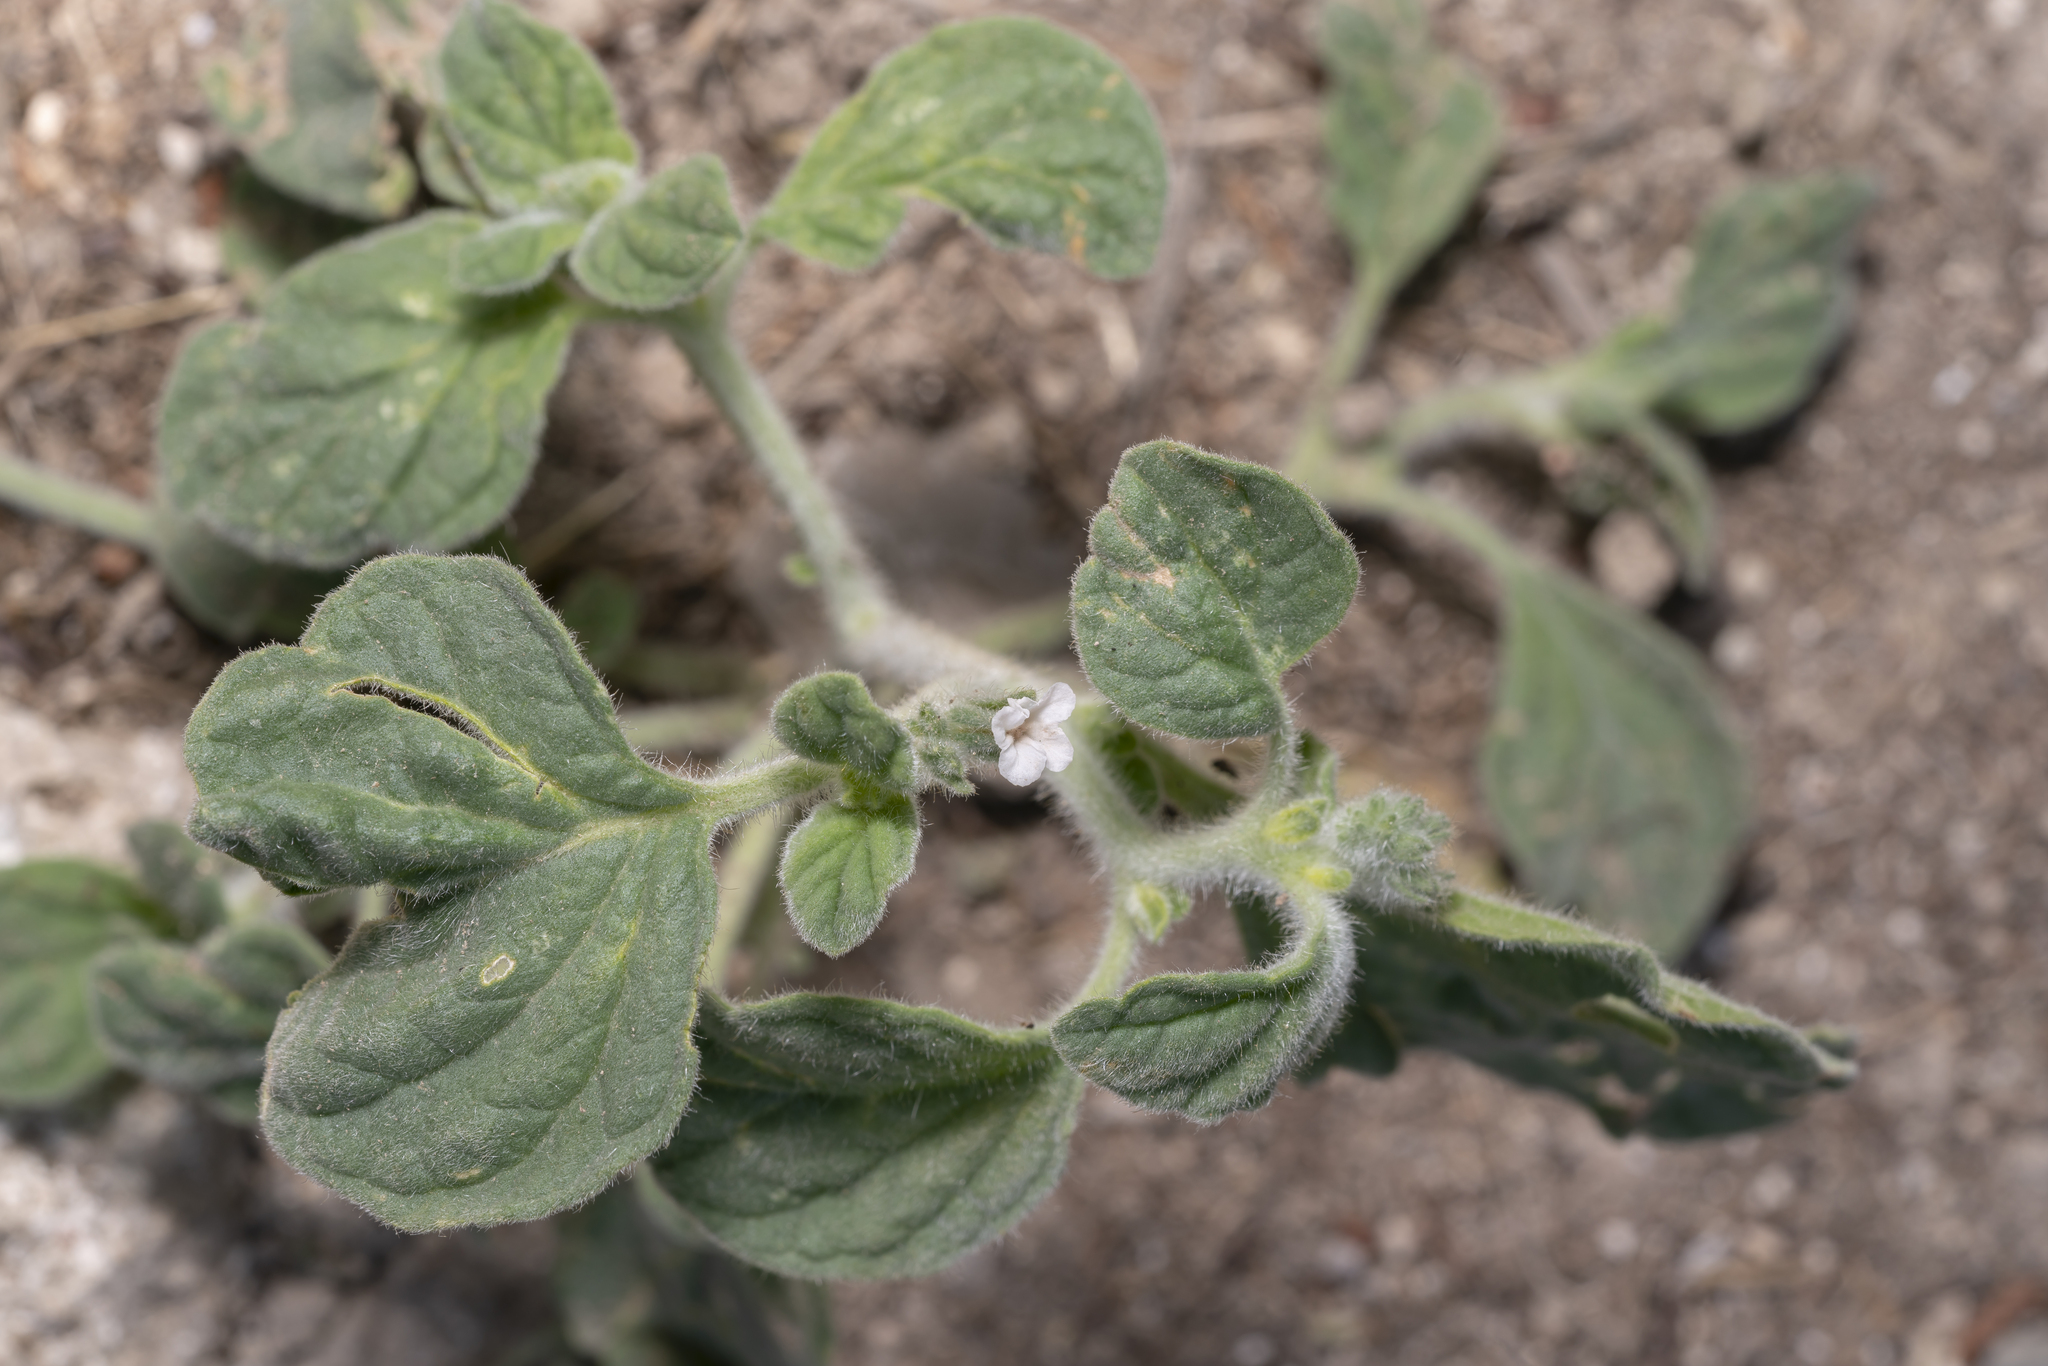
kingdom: Plantae
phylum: Tracheophyta
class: Magnoliopsida
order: Boraginales
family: Heliotropiaceae
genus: Heliotropium
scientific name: Heliotropium hirsutissimum
